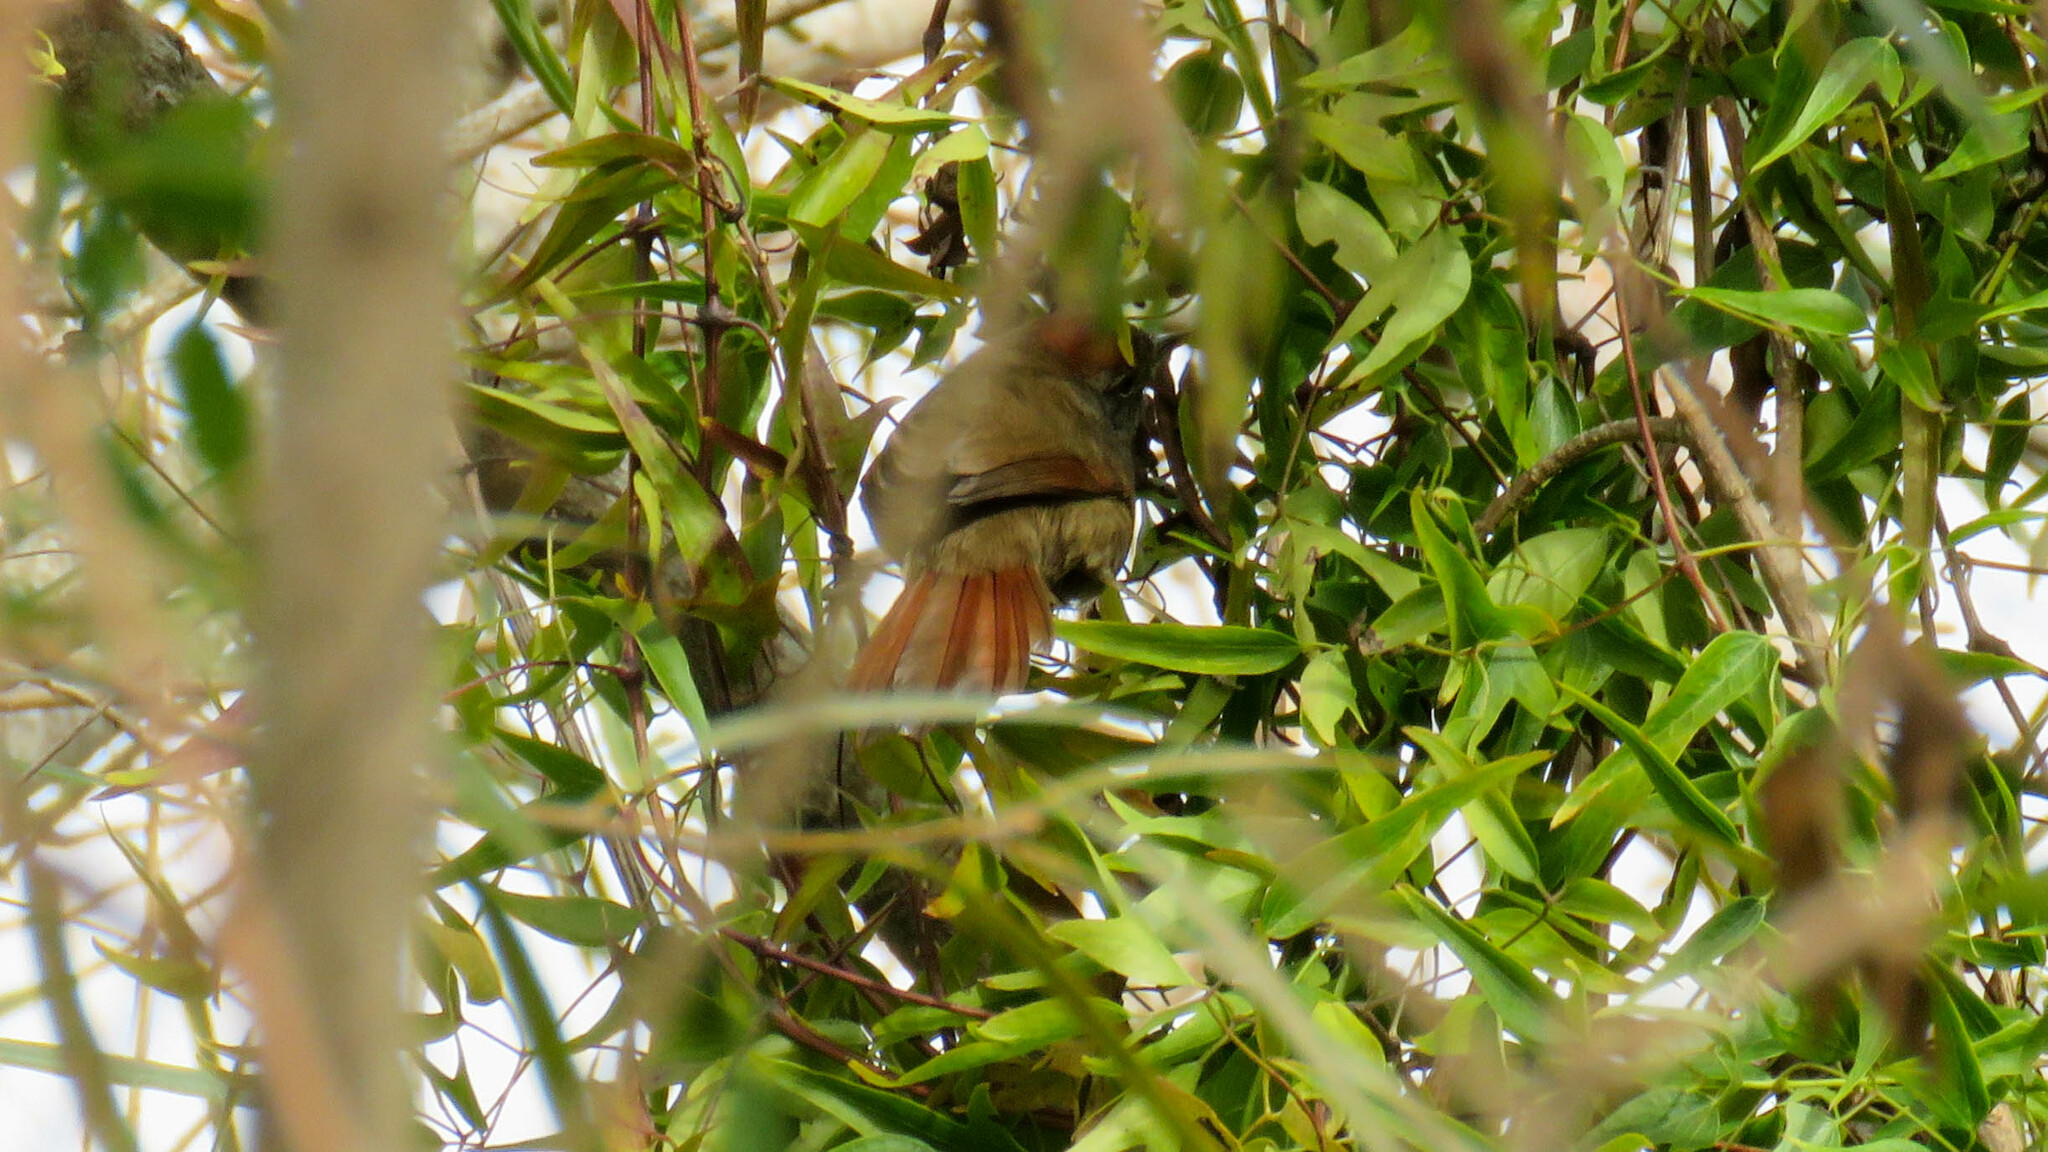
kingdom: Animalia
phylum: Chordata
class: Aves
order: Passeriformes
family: Furnariidae
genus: Synallaxis
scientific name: Synallaxis frontalis
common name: Sooty-fronted spinetail
